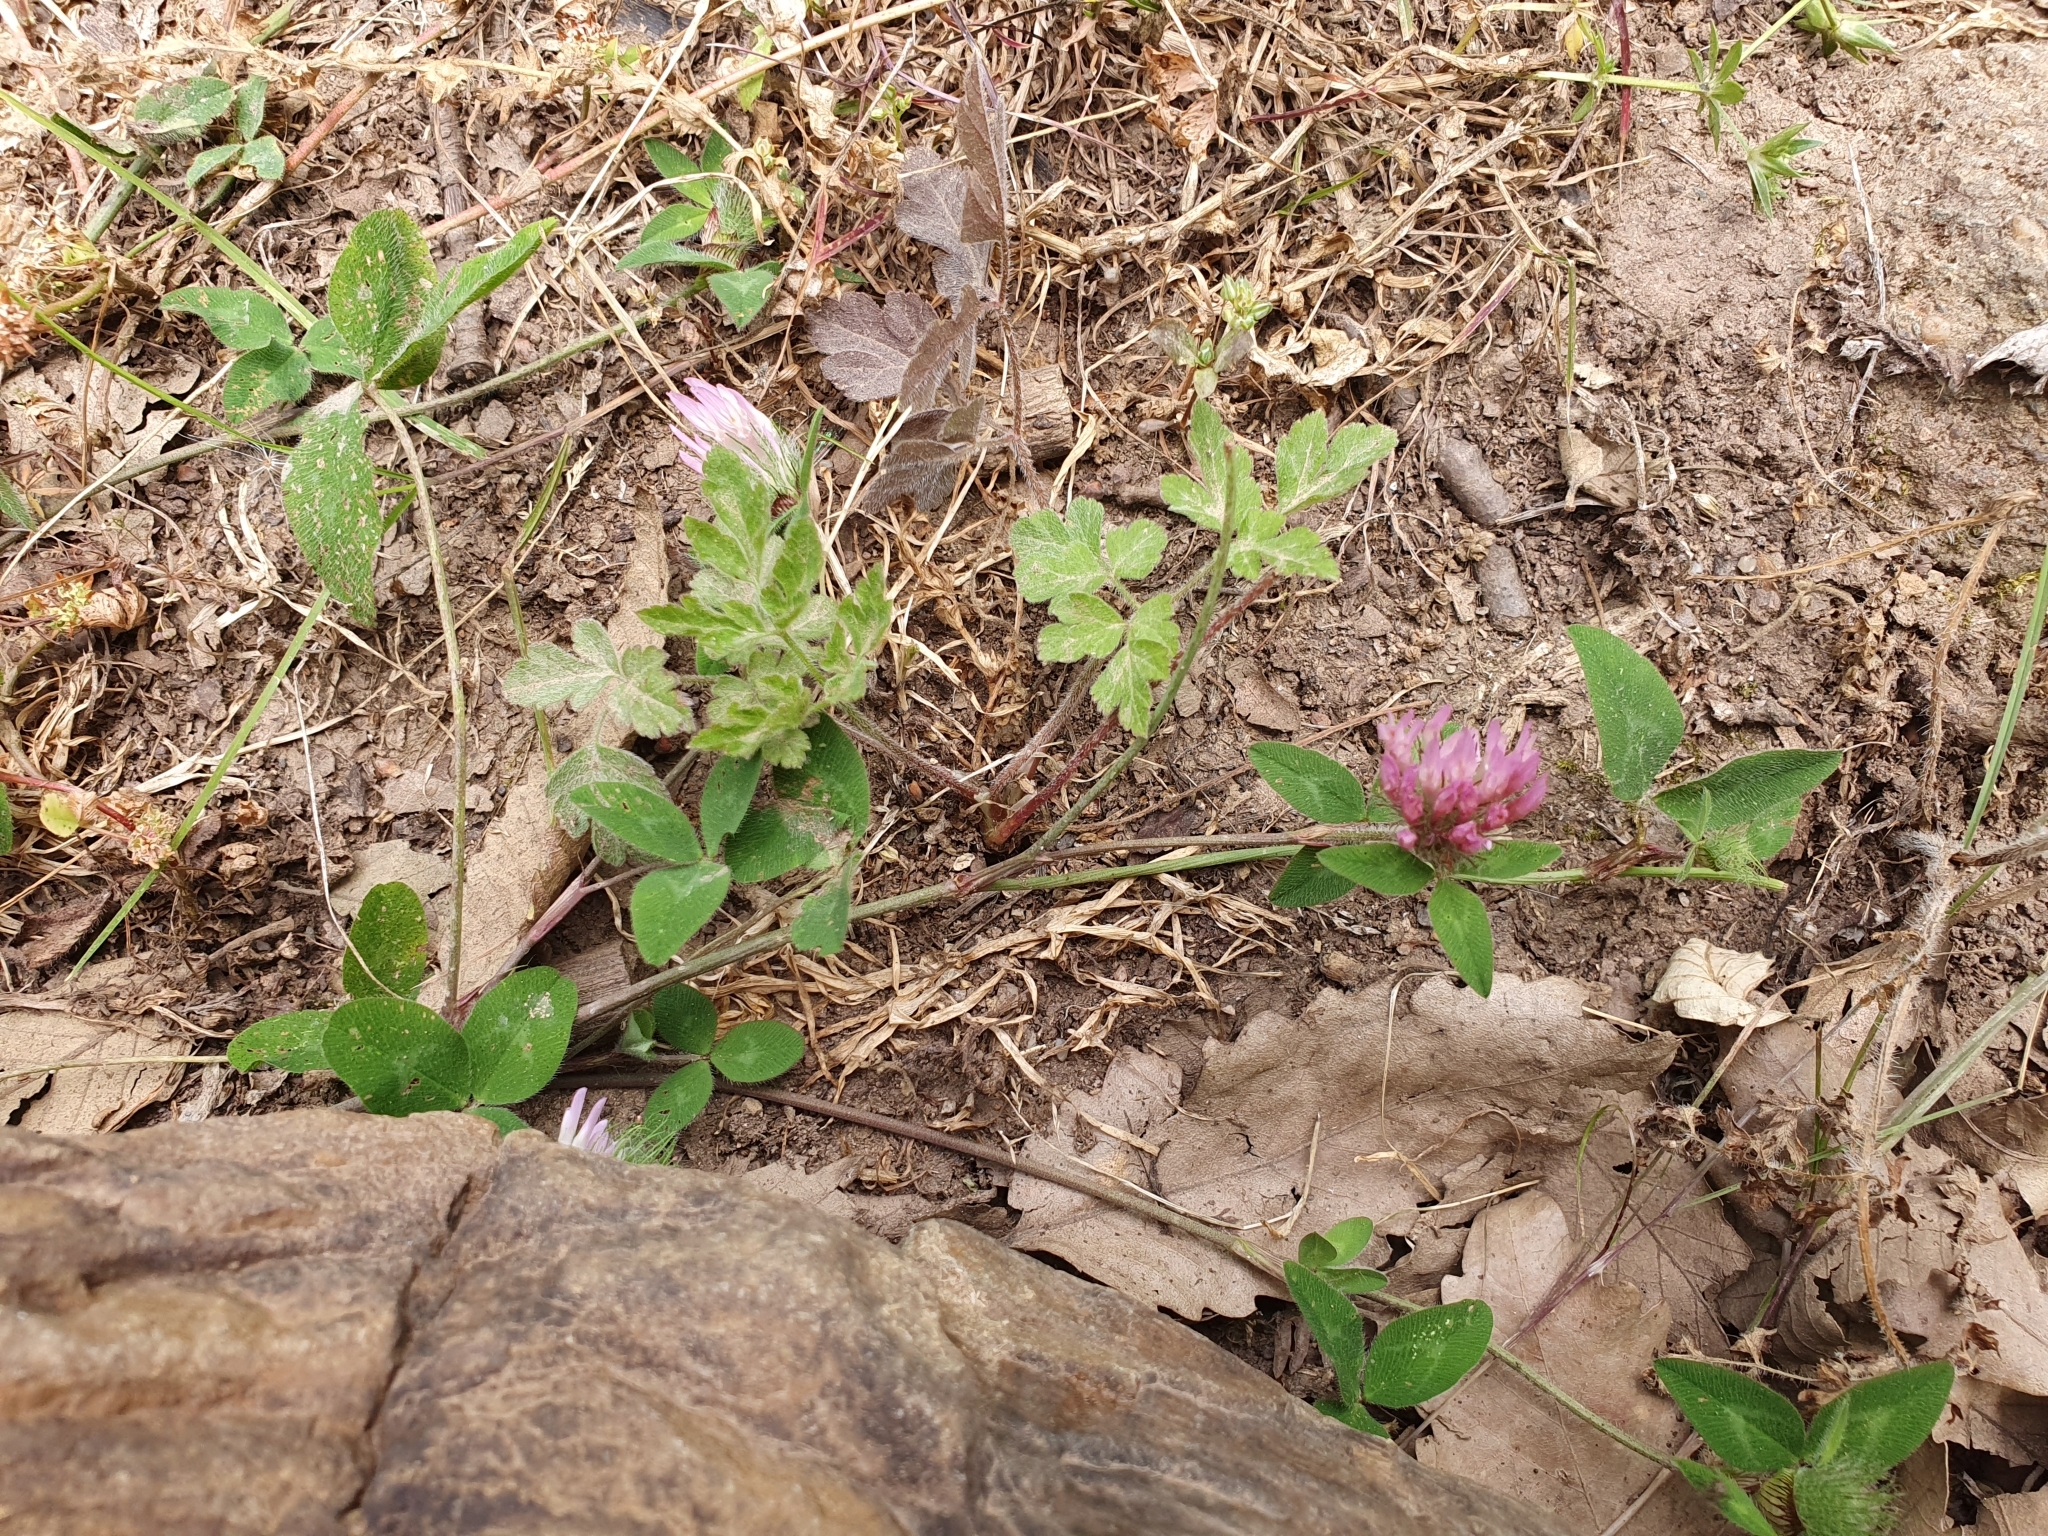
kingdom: Plantae
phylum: Tracheophyta
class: Magnoliopsida
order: Fabales
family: Fabaceae
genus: Trifolium
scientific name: Trifolium pratense
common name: Red clover
